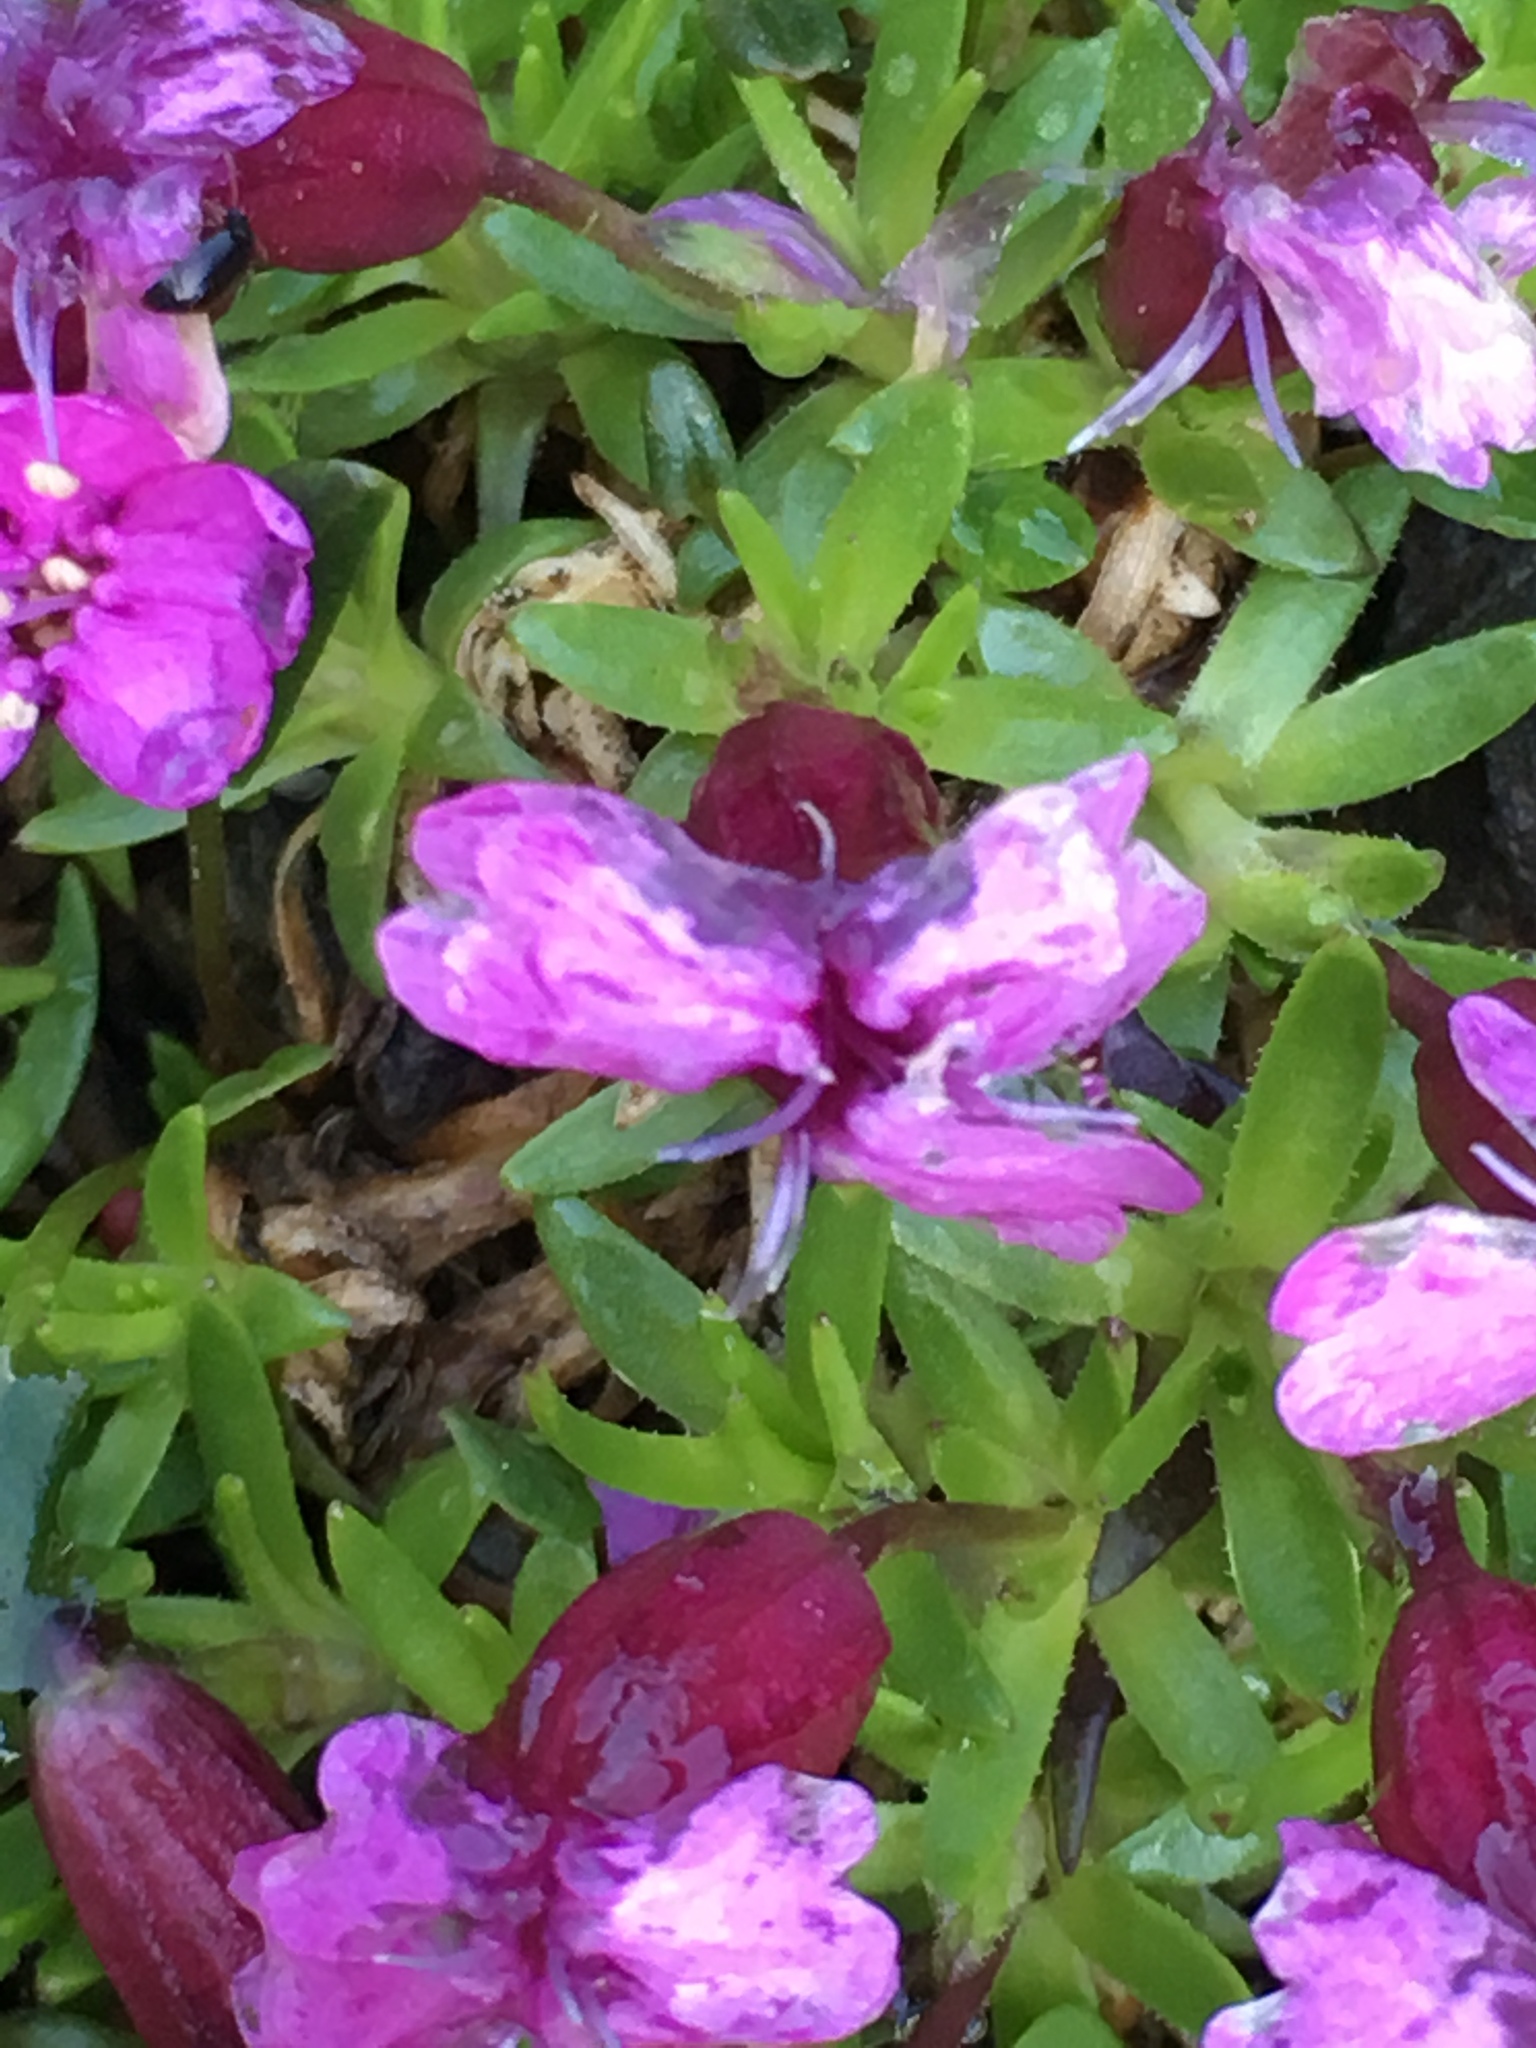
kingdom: Plantae
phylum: Tracheophyta
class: Magnoliopsida
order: Caryophyllales
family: Caryophyllaceae
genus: Silene
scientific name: Silene acaulis
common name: Moss campion
